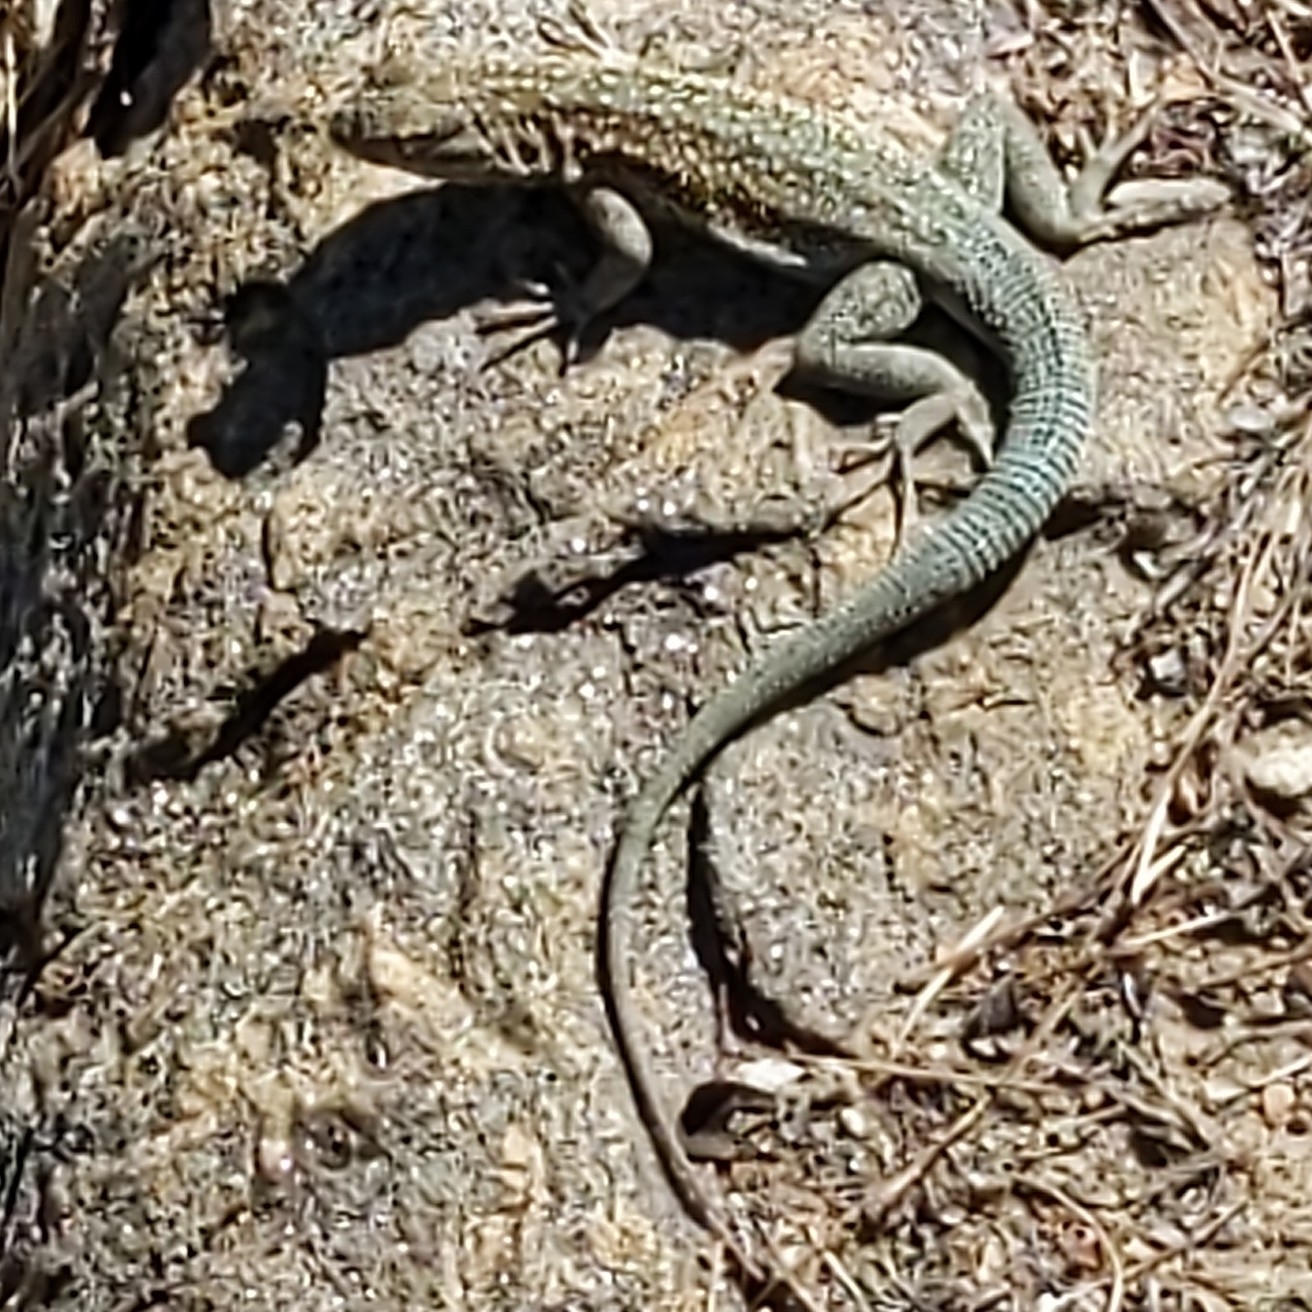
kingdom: Animalia
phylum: Chordata
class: Squamata
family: Phrynosomatidae
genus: Uta
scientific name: Uta stansburiana
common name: Side-blotched lizard
